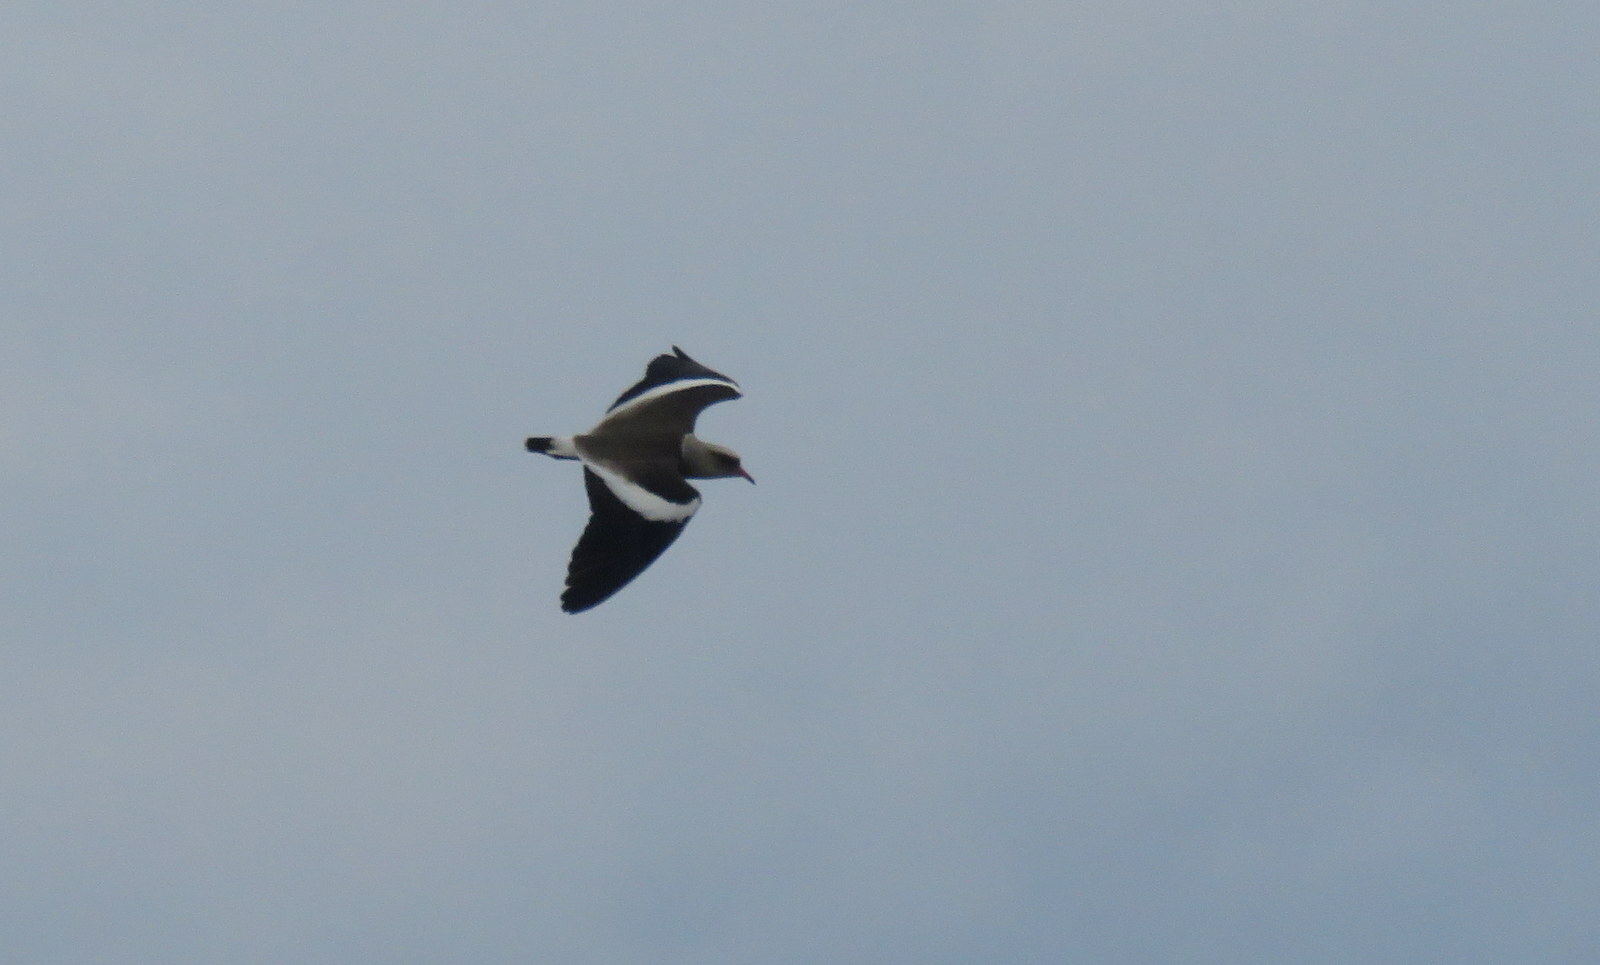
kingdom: Animalia
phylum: Chordata
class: Aves
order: Charadriiformes
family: Charadriidae
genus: Vanellus
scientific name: Vanellus resplendens
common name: Andean lapwing
